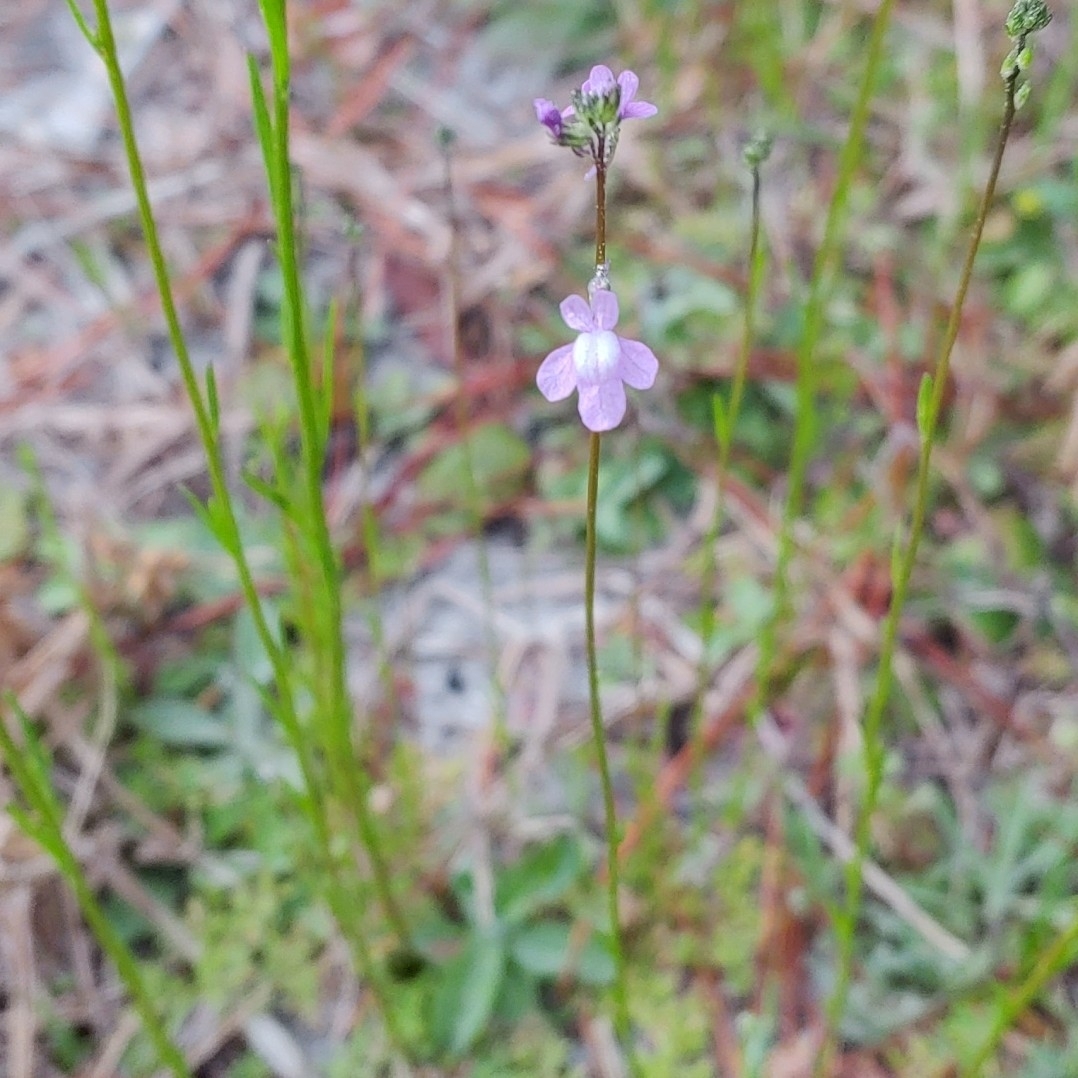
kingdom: Plantae
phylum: Tracheophyta
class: Magnoliopsida
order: Lamiales
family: Plantaginaceae
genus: Nuttallanthus
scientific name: Nuttallanthus canadensis
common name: Blue toadflax
